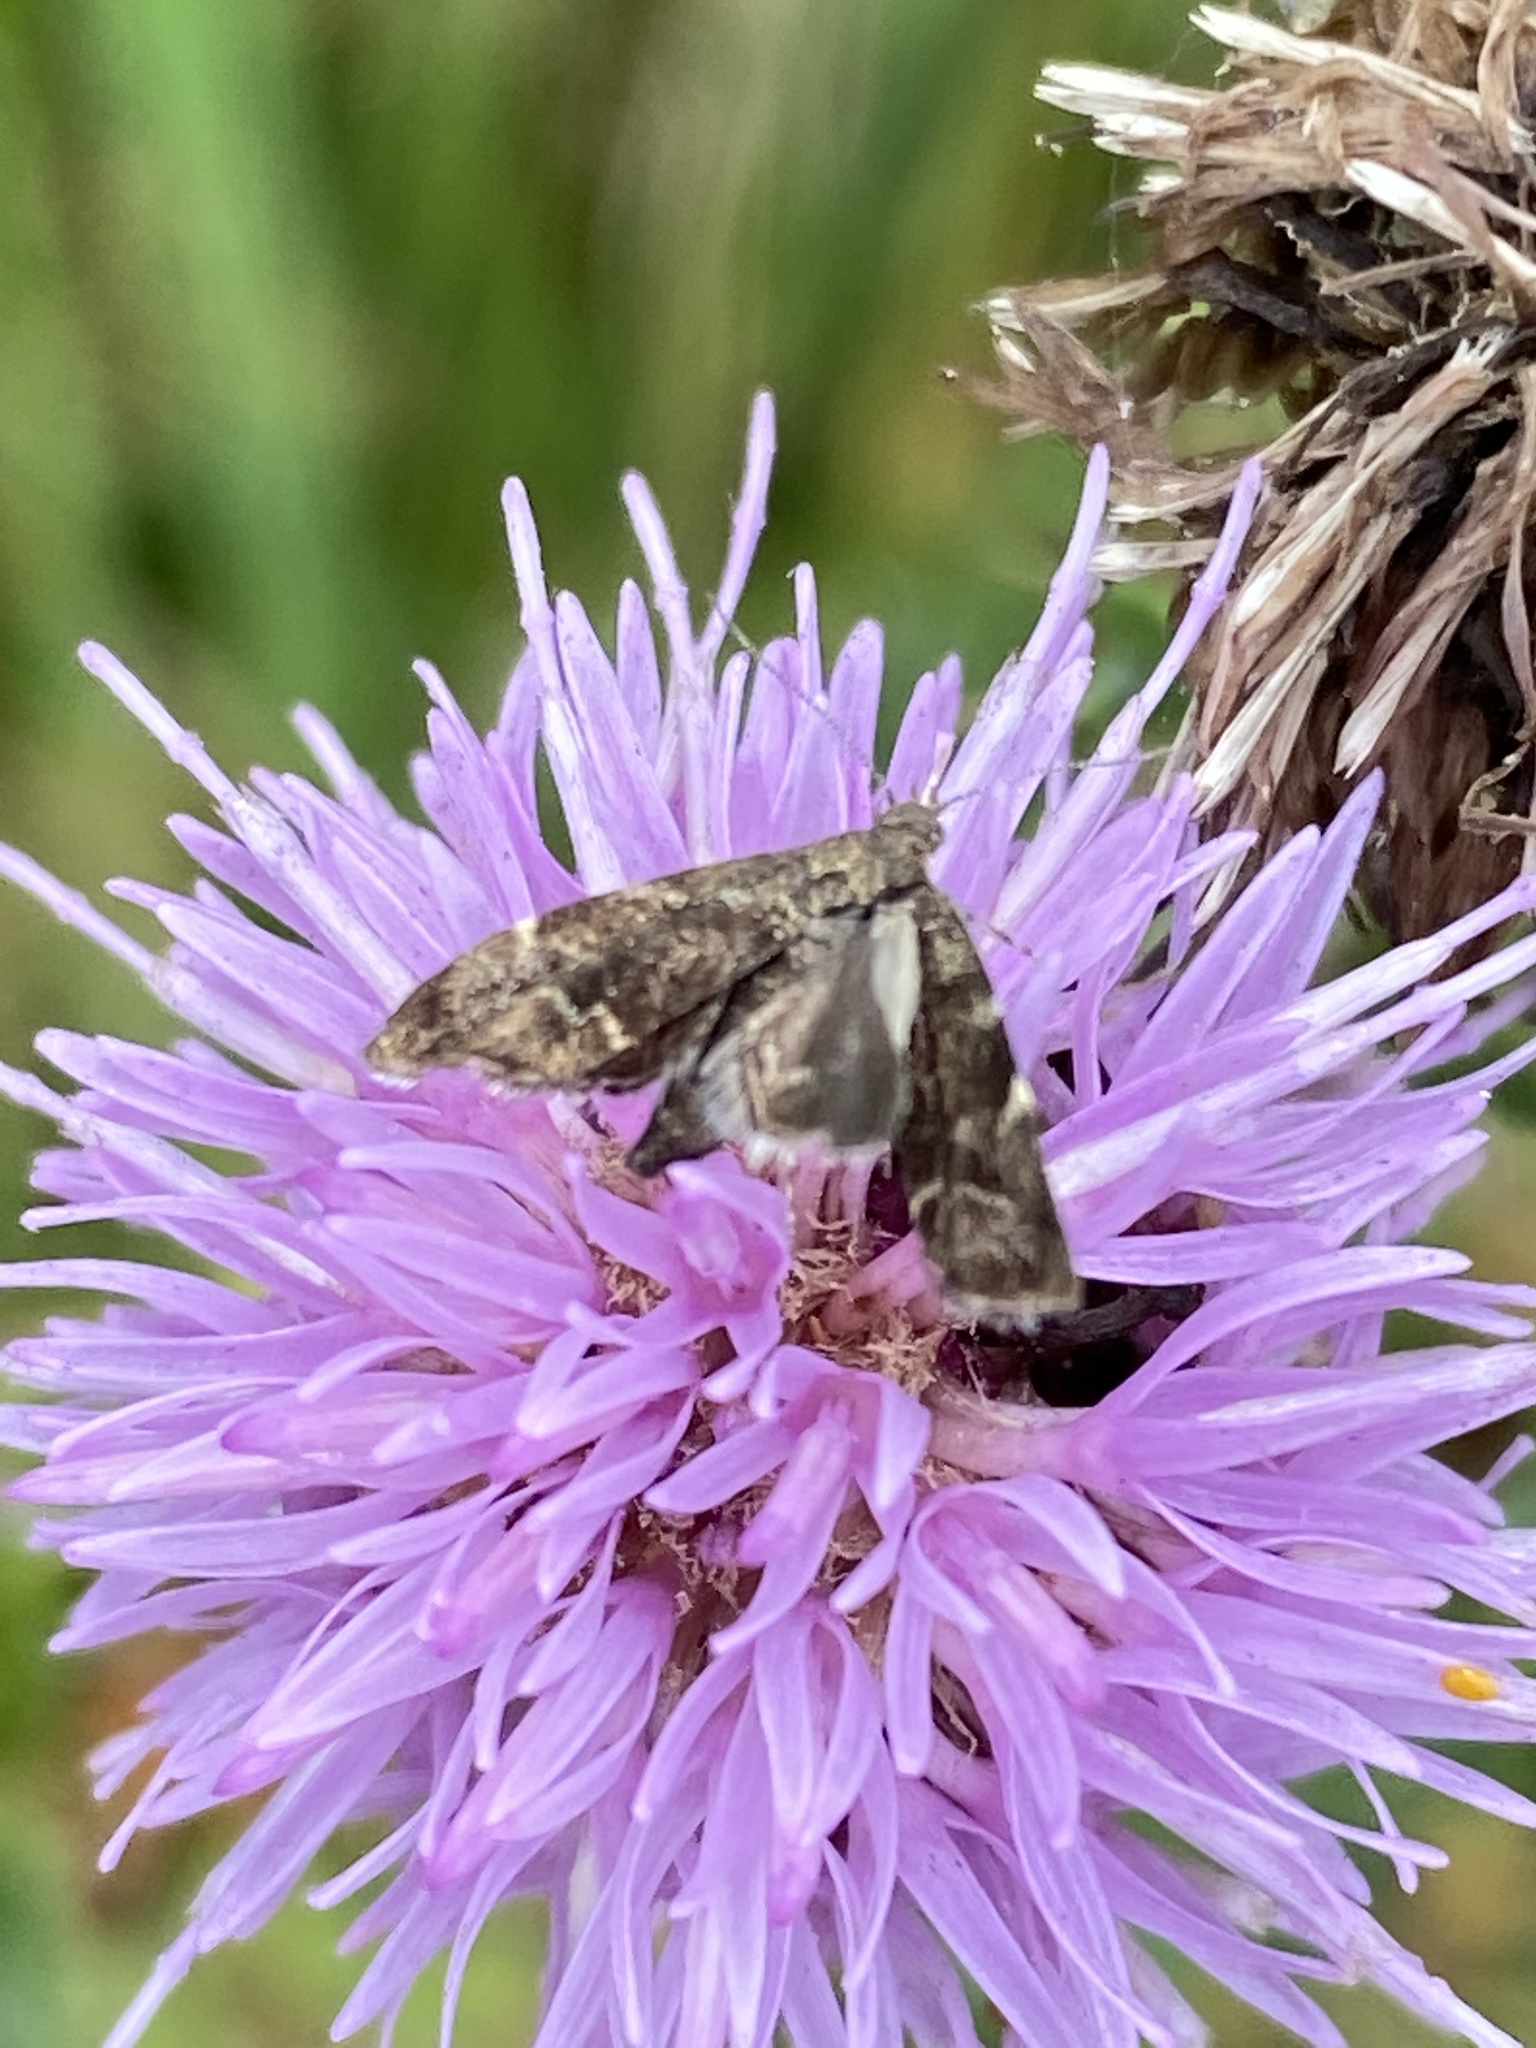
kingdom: Animalia
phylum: Arthropoda
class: Insecta
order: Lepidoptera
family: Choreutidae
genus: Anthophila
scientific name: Anthophila fabriciana
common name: Nettle-tap
